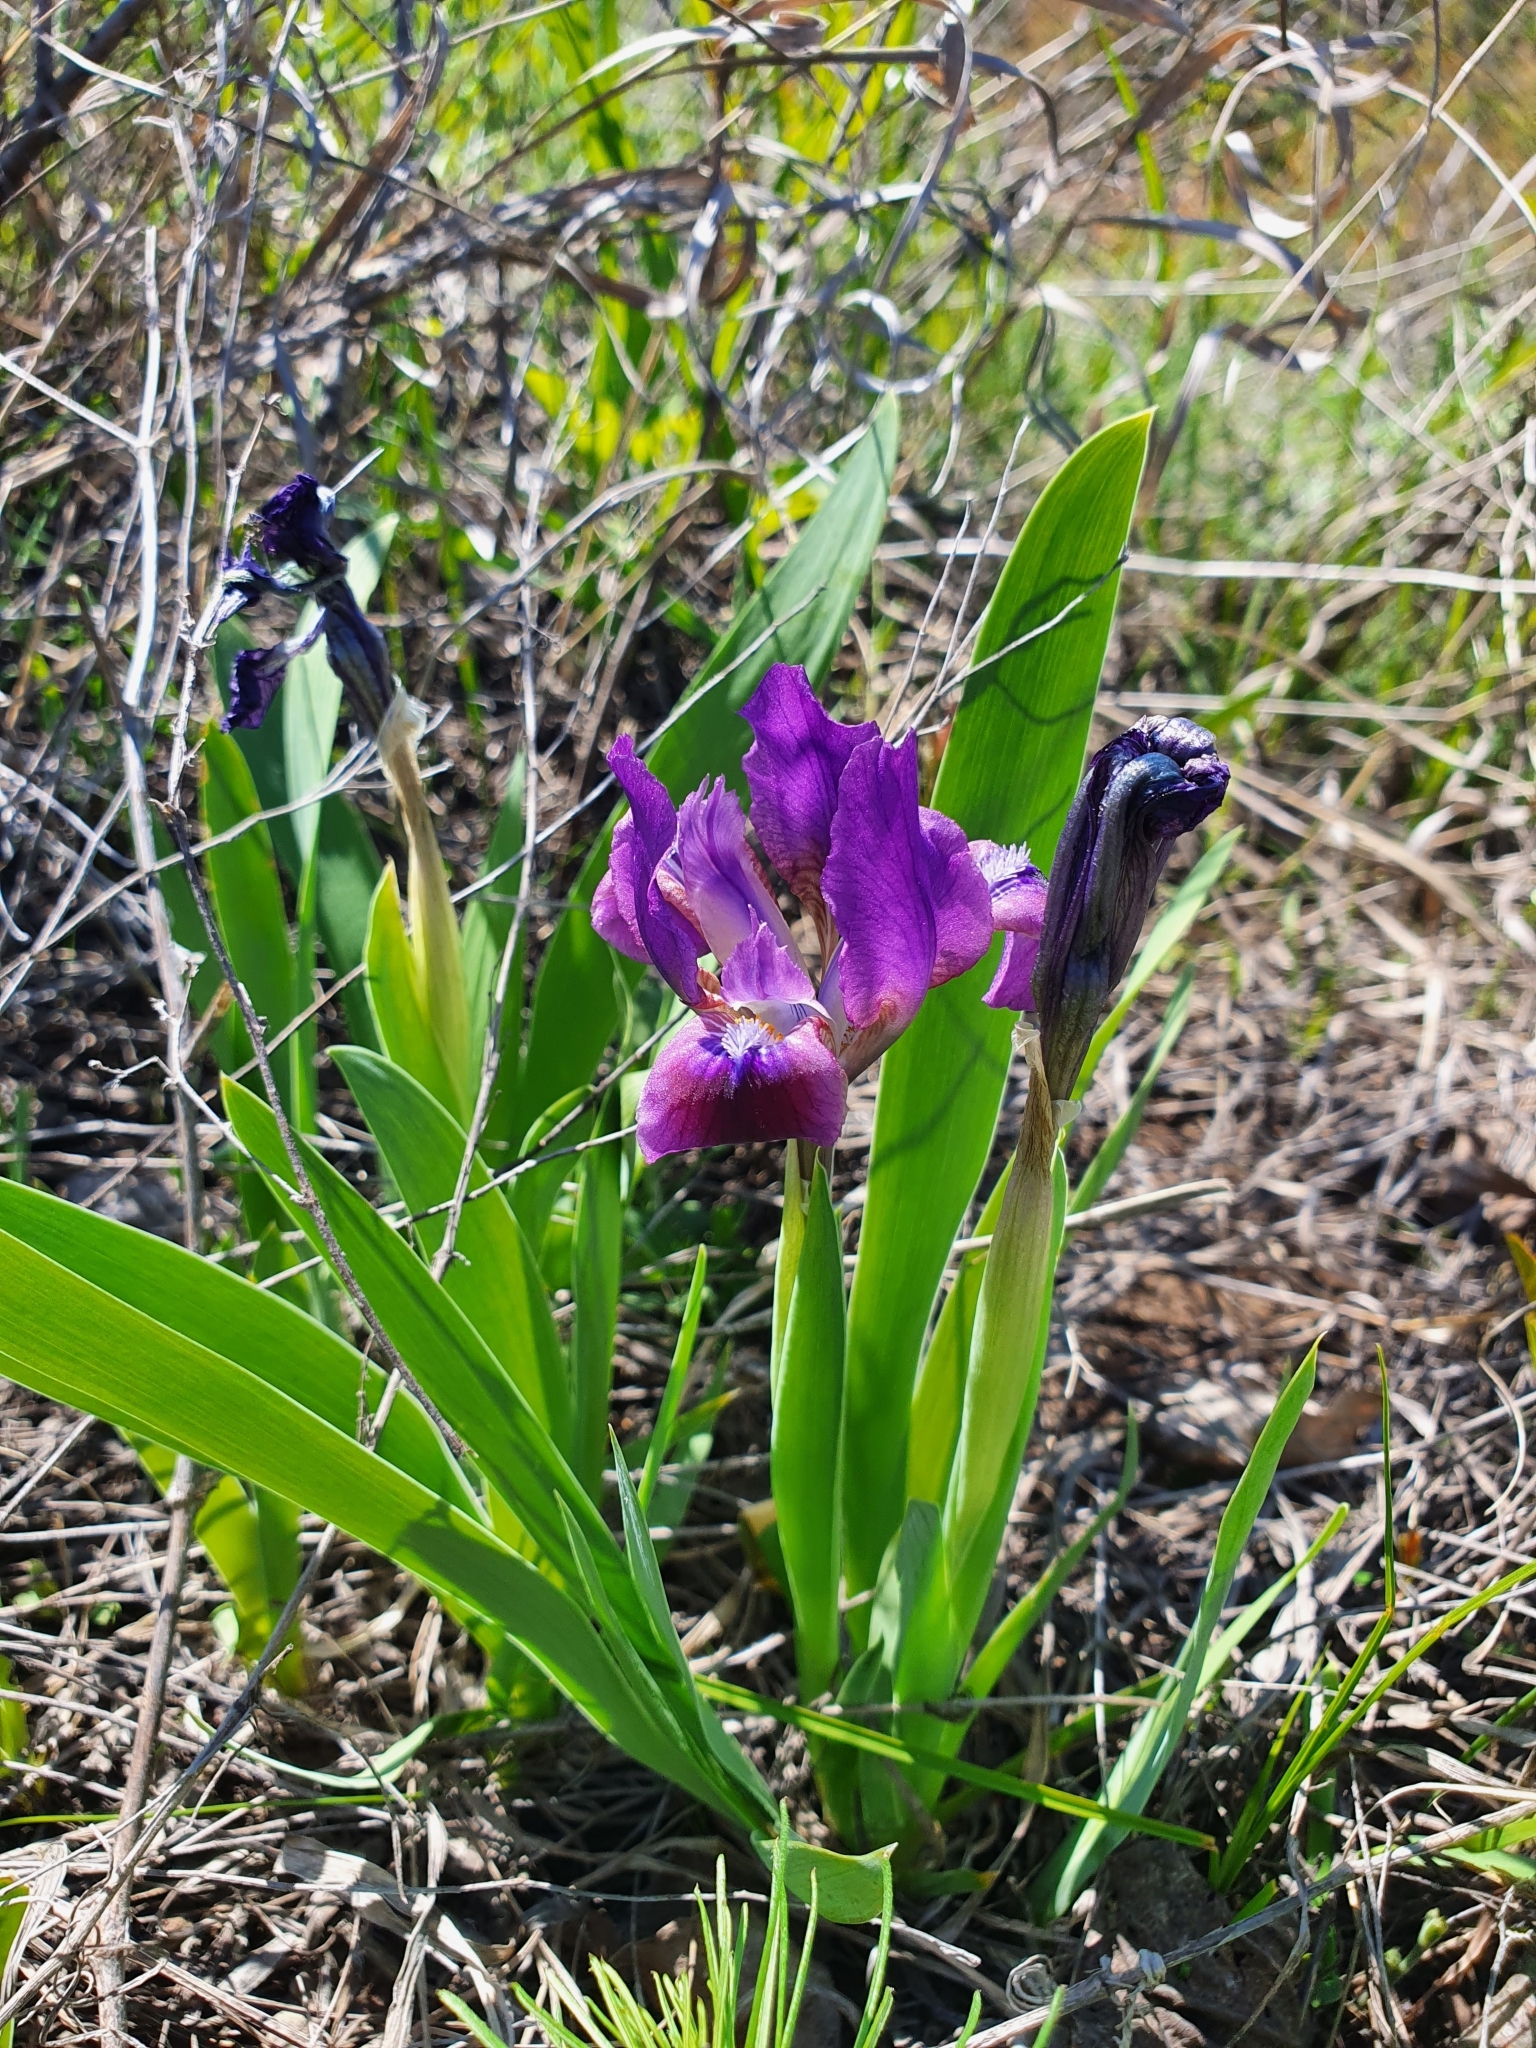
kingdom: Plantae
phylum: Tracheophyta
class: Liliopsida
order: Asparagales
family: Iridaceae
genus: Iris
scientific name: Iris pumila
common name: Dwarf iris
